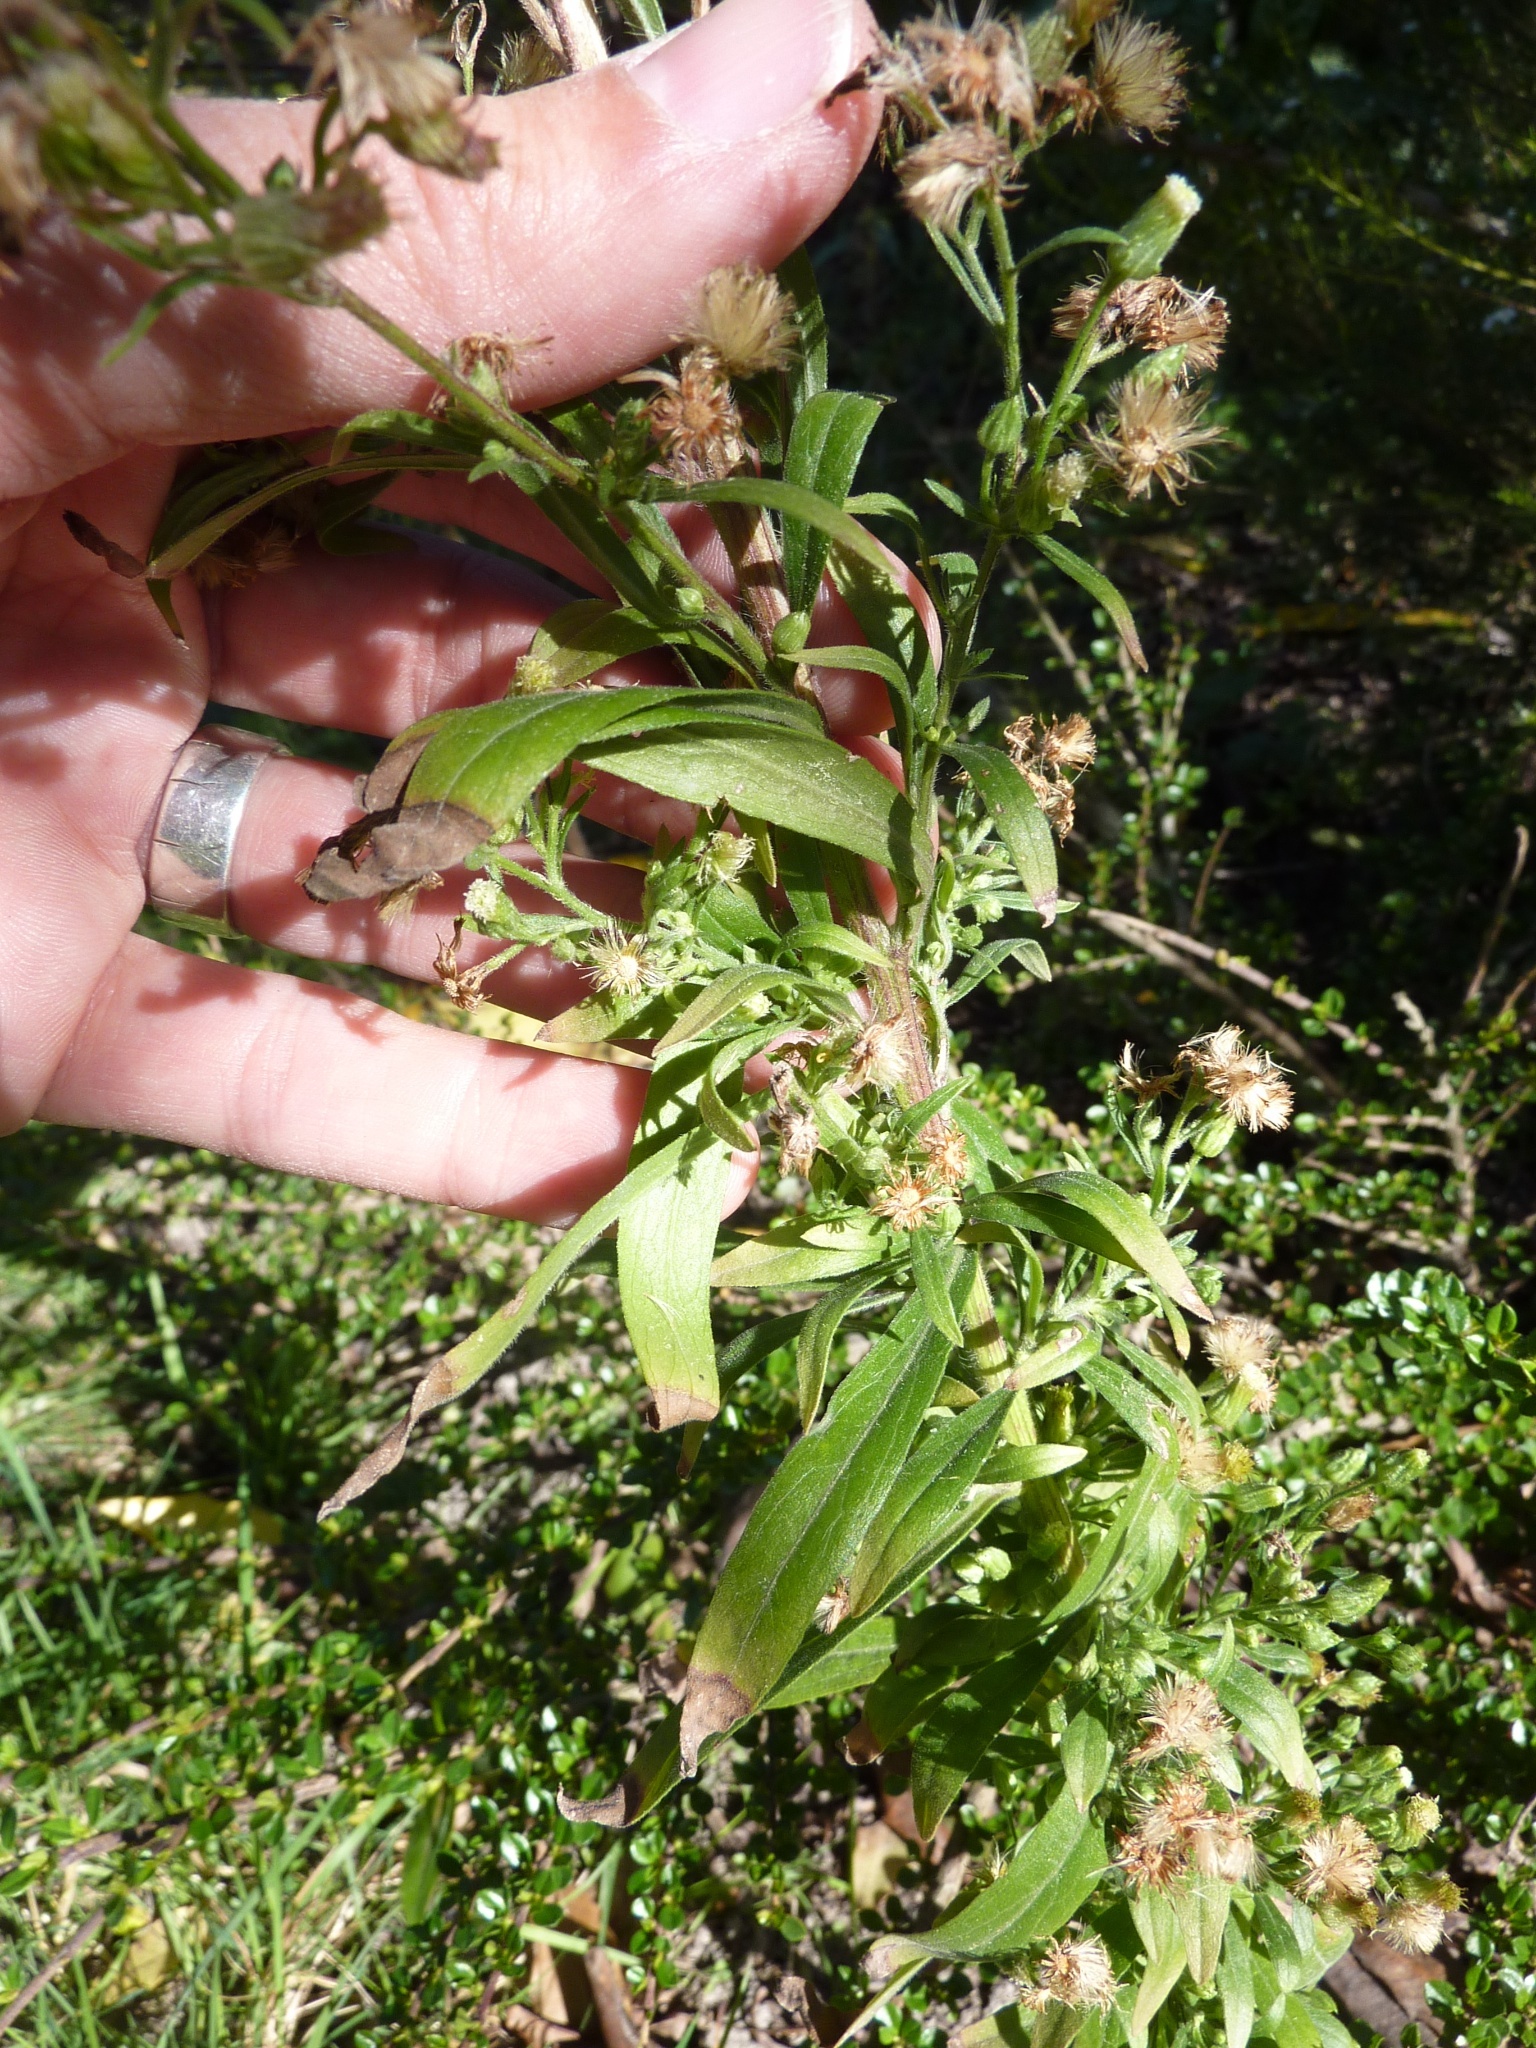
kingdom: Plantae
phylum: Tracheophyta
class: Magnoliopsida
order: Asterales
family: Asteraceae
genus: Erigeron
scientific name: Erigeron sumatrensis
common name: Daisy
